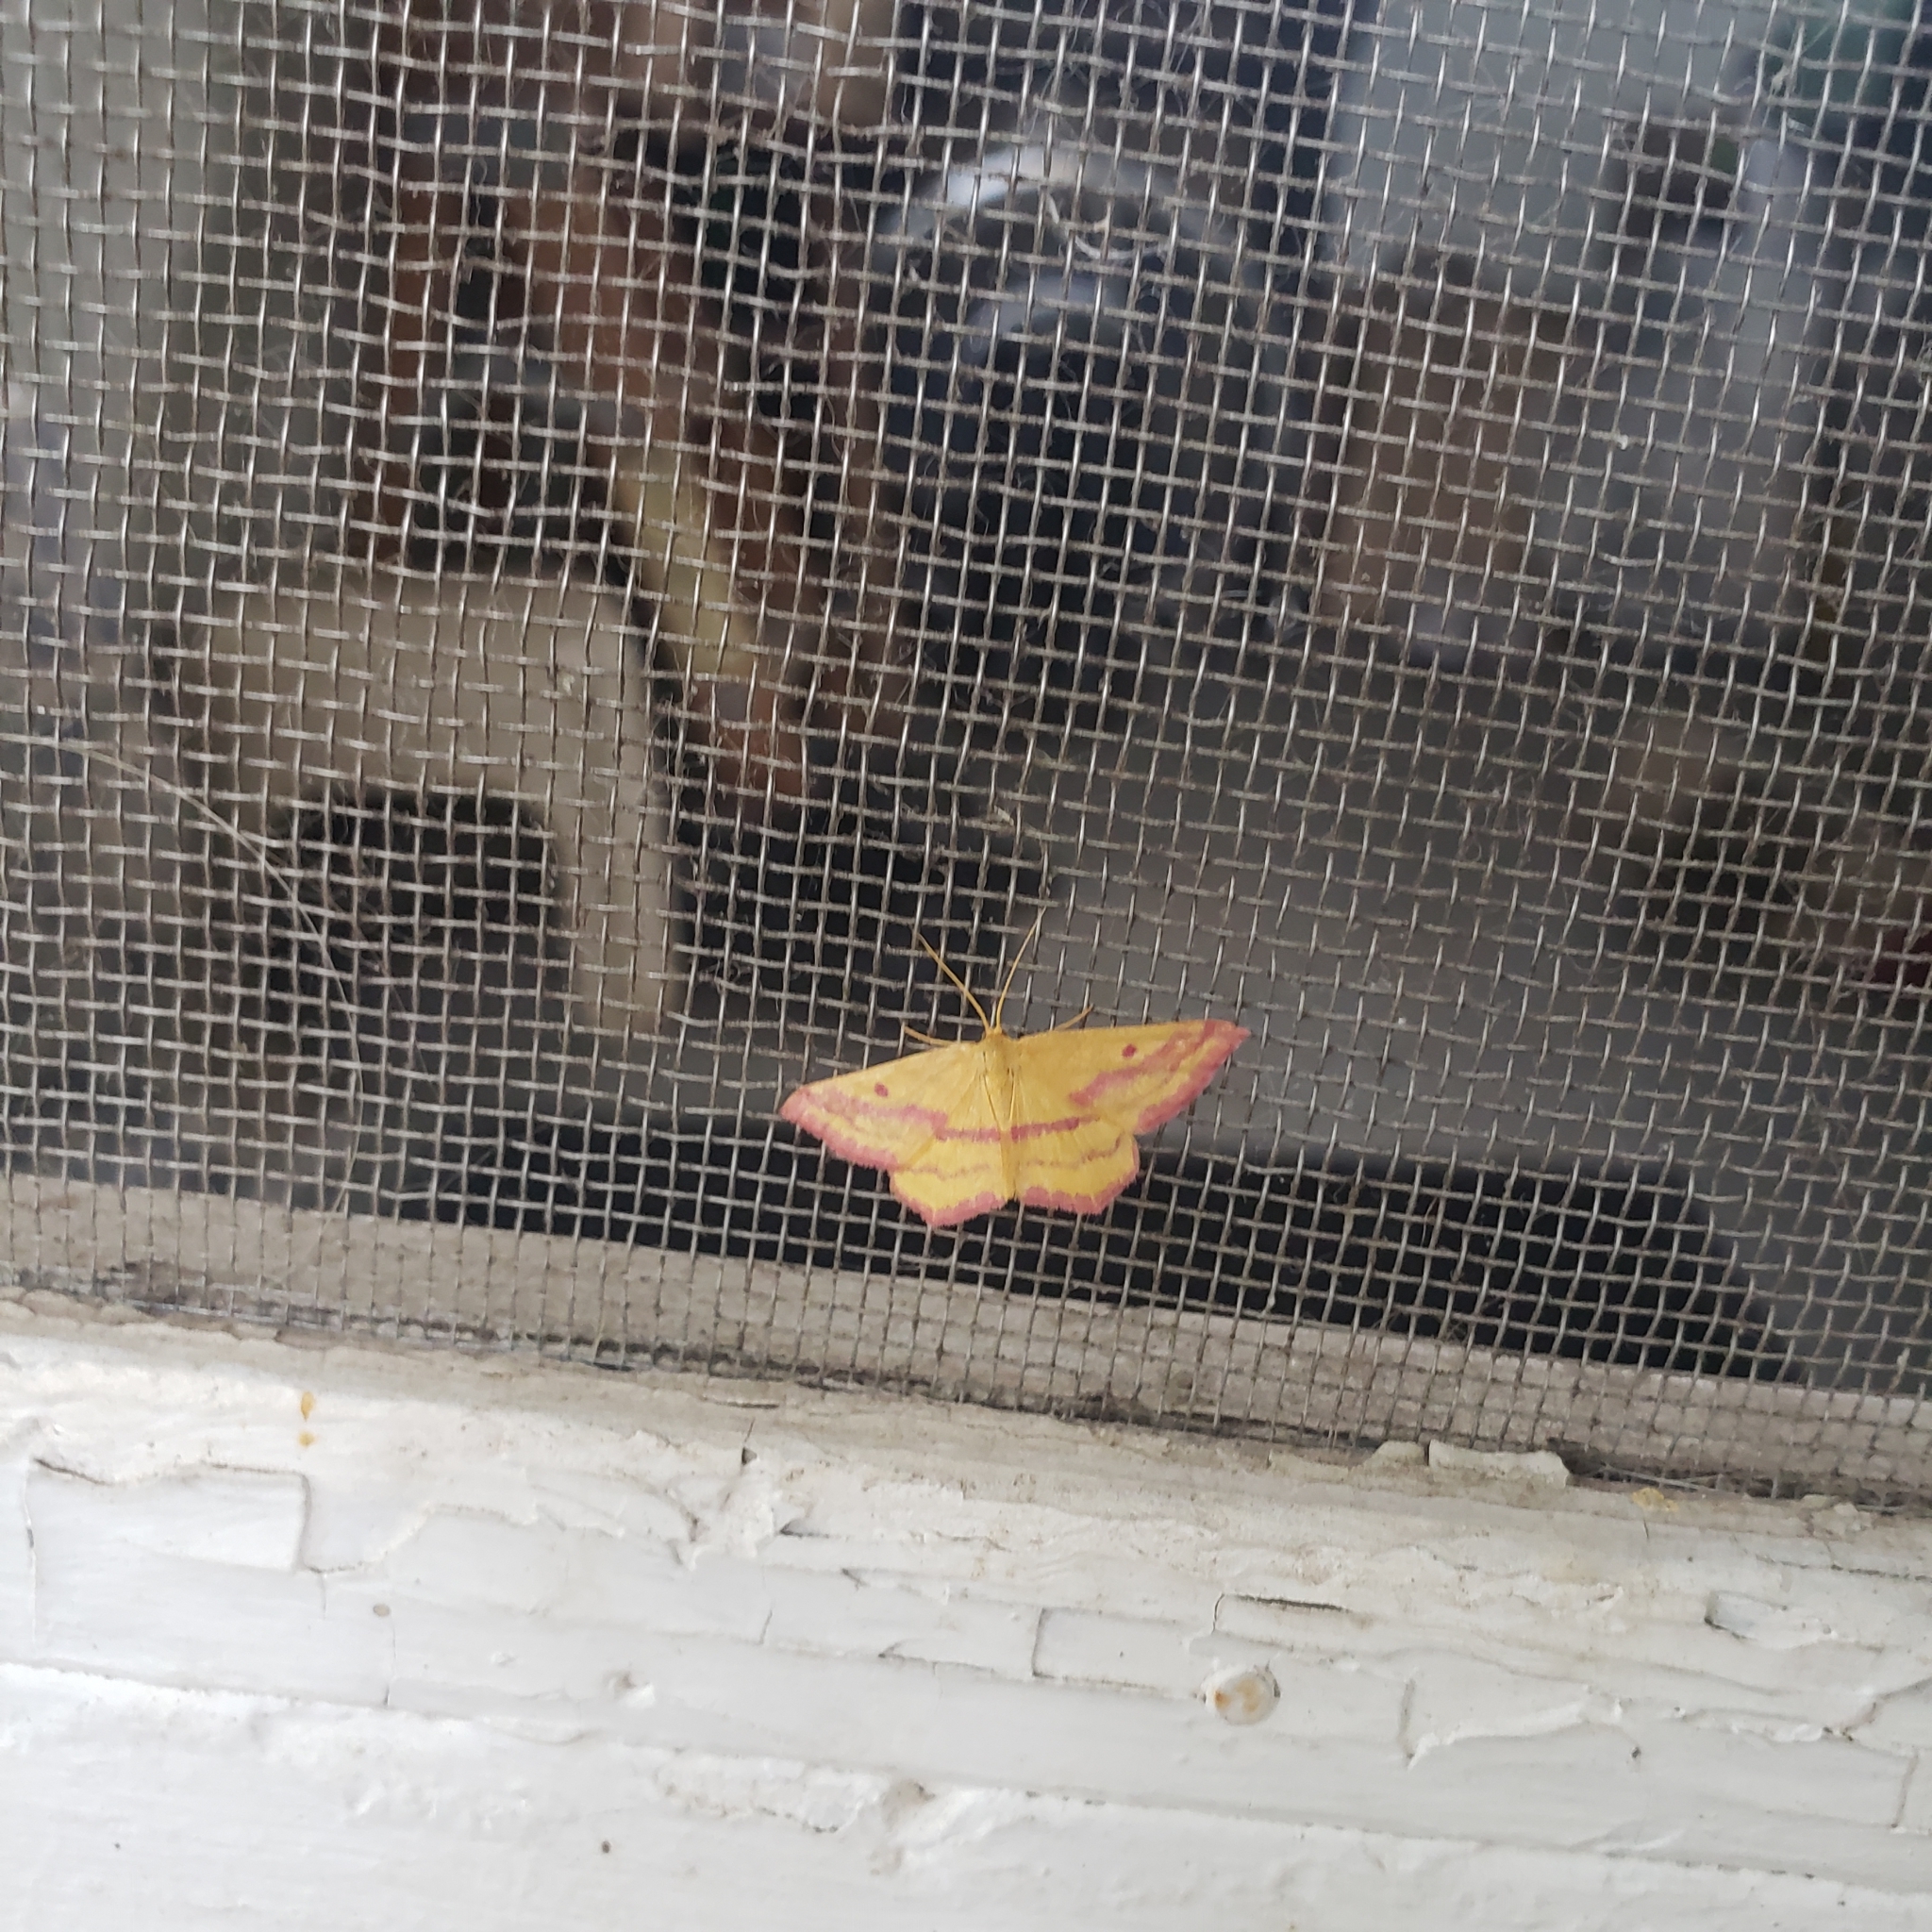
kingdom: Animalia
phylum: Arthropoda
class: Insecta
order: Lepidoptera
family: Geometridae
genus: Haematopis
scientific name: Haematopis grataria
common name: Chickweed geometer
